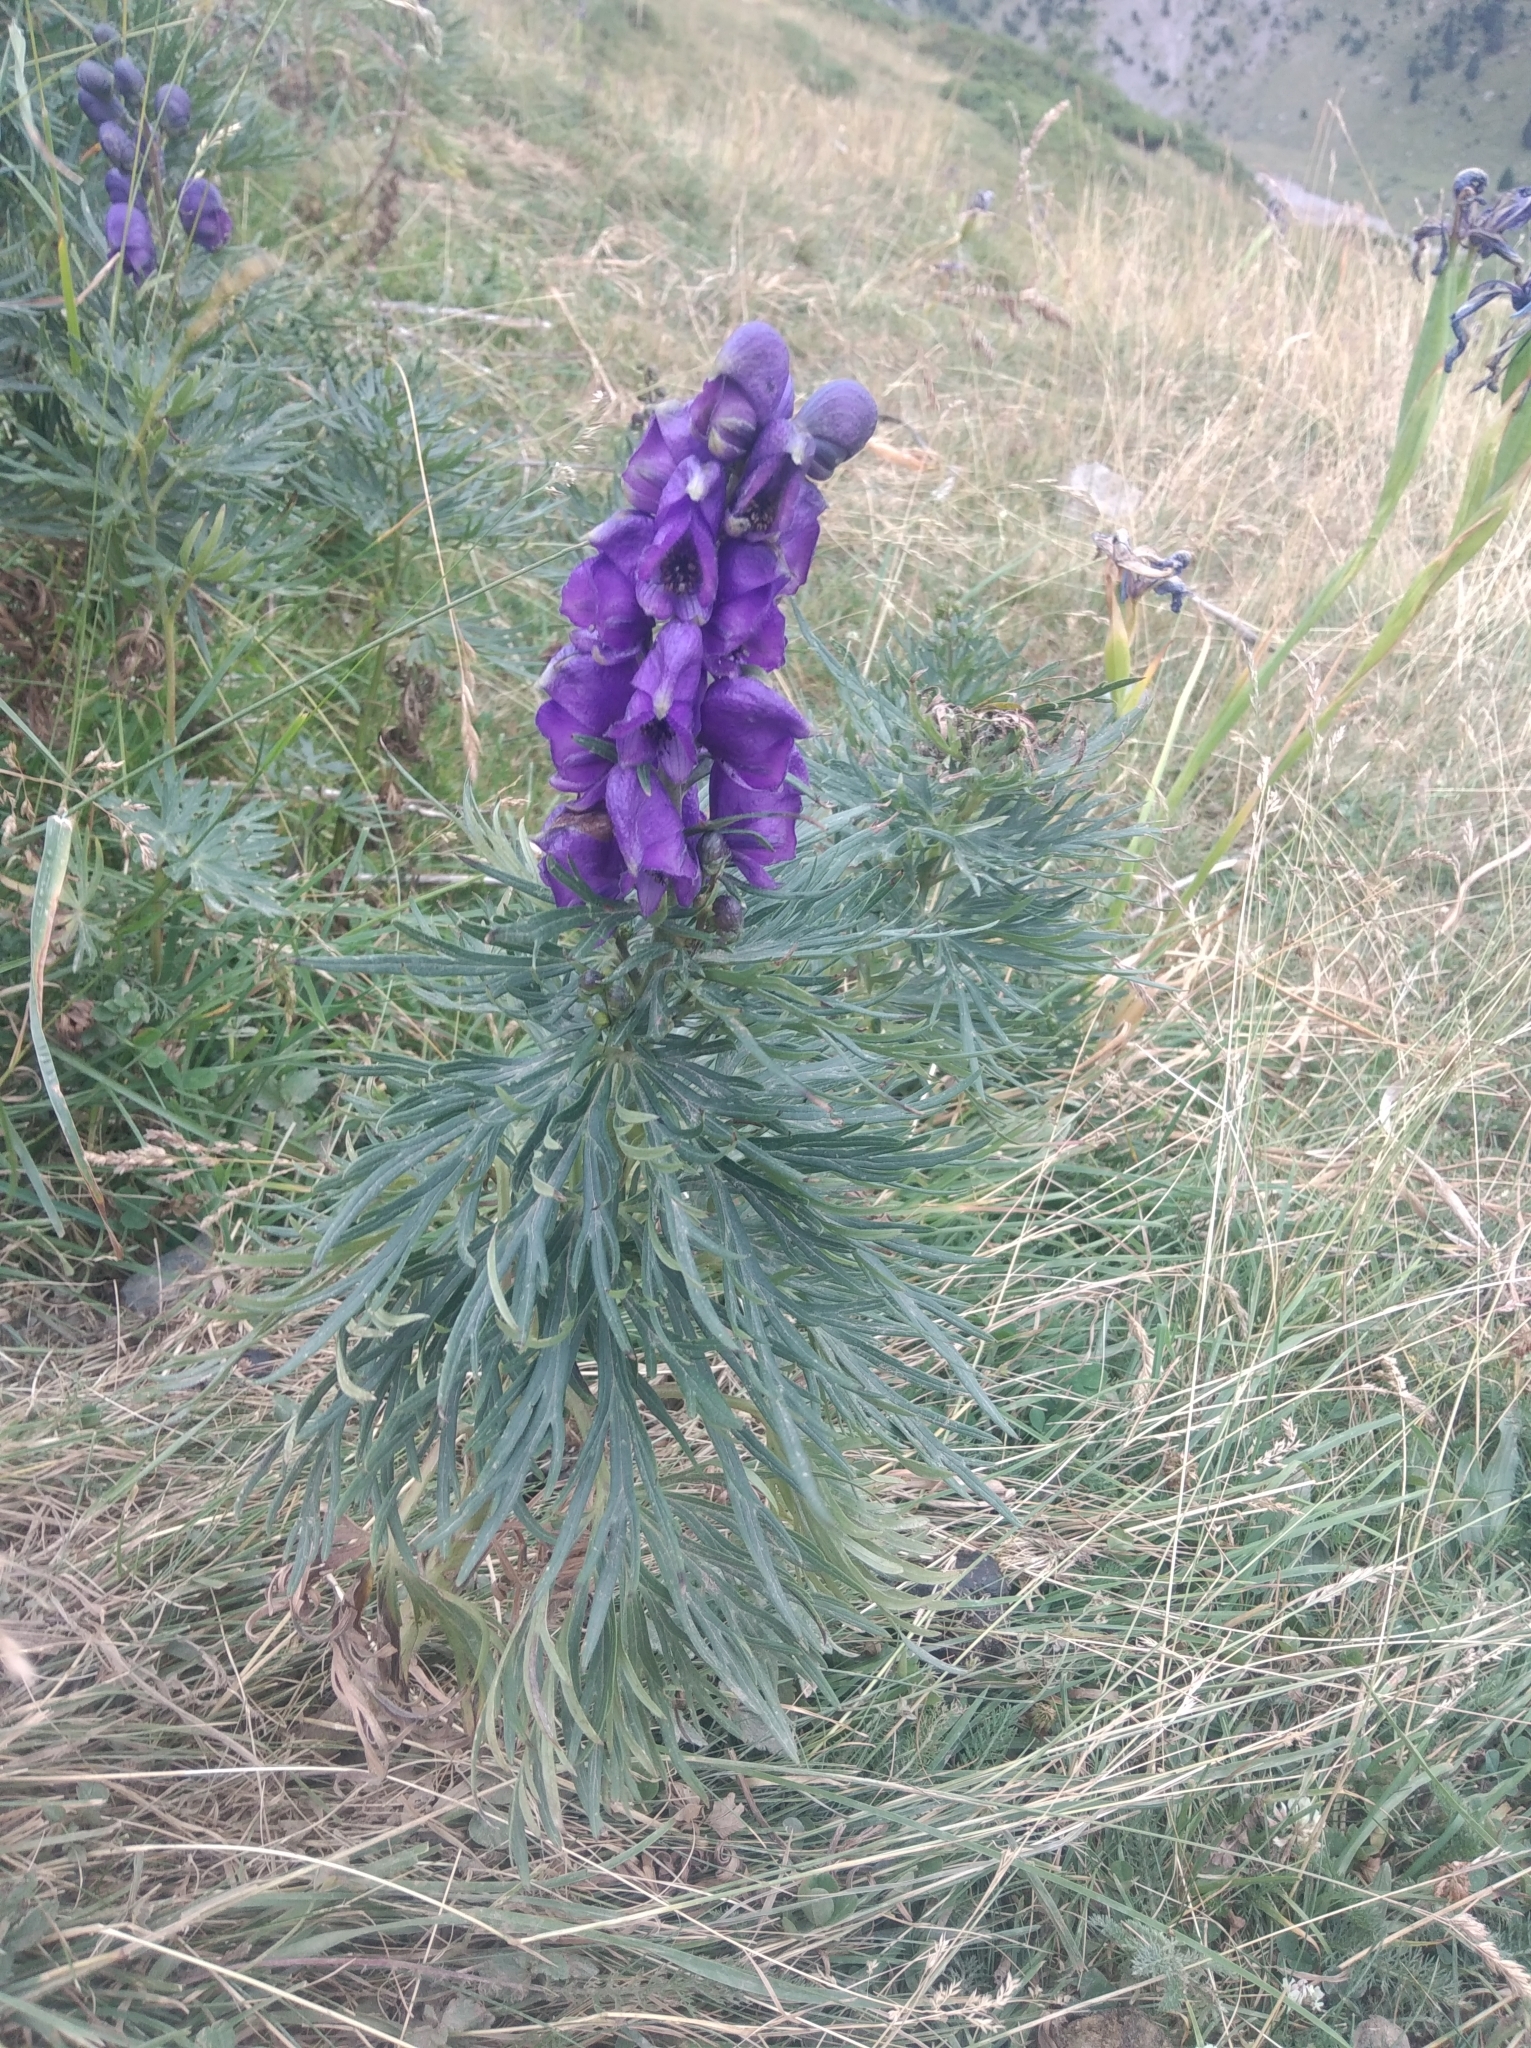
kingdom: Plantae
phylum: Tracheophyta
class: Magnoliopsida
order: Ranunculales
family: Ranunculaceae
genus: Aconitum
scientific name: Aconitum napellus
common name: Garden monkshood
